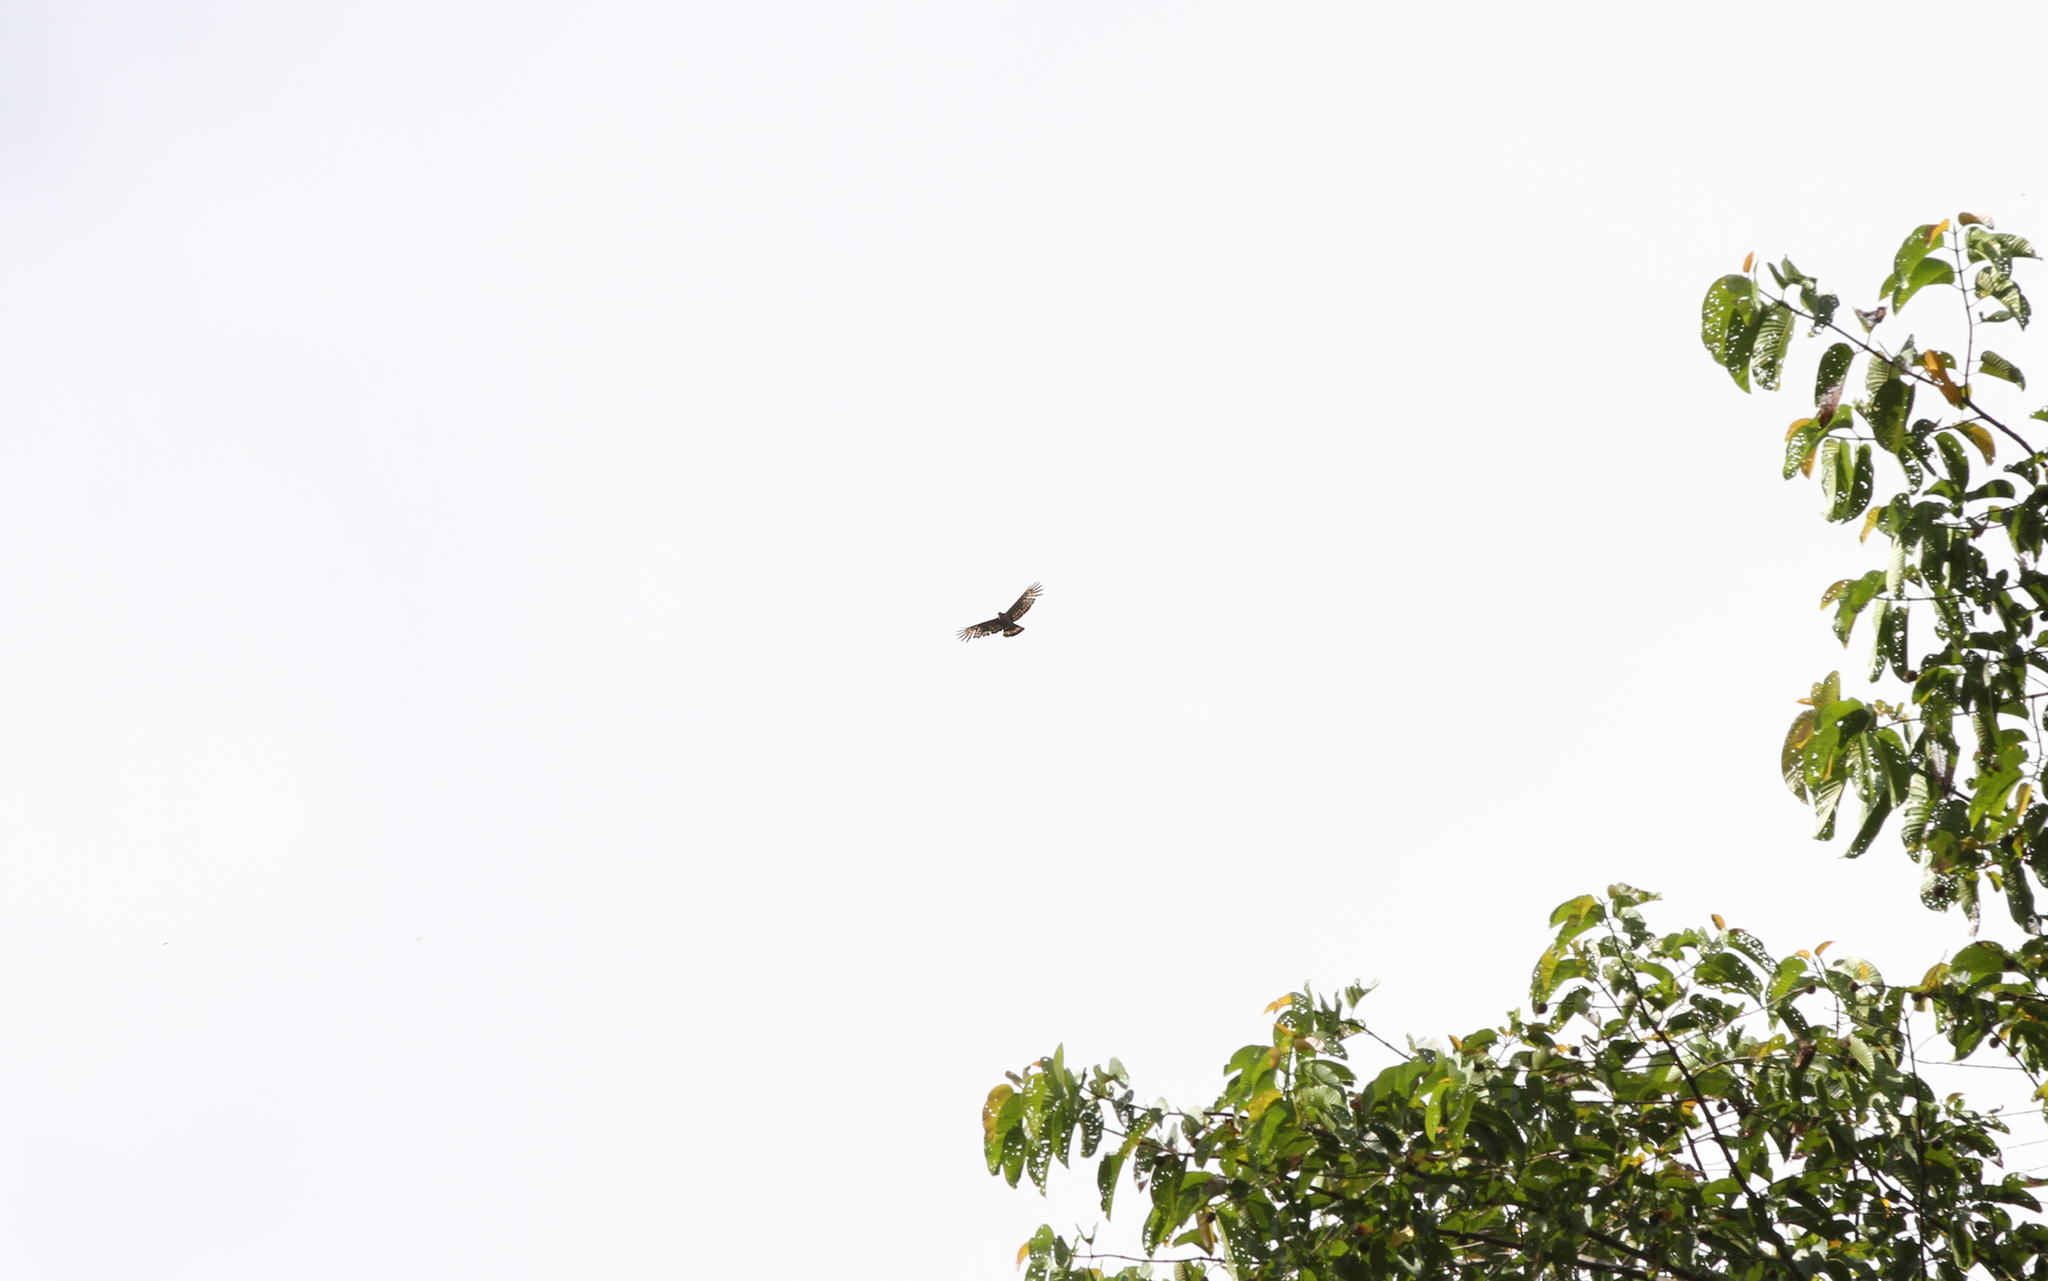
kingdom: Animalia
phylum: Chordata
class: Aves
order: Accipitriformes
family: Accipitridae
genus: Nisaetus
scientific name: Nisaetus alboniger
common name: Blyth's hawk-eagle
